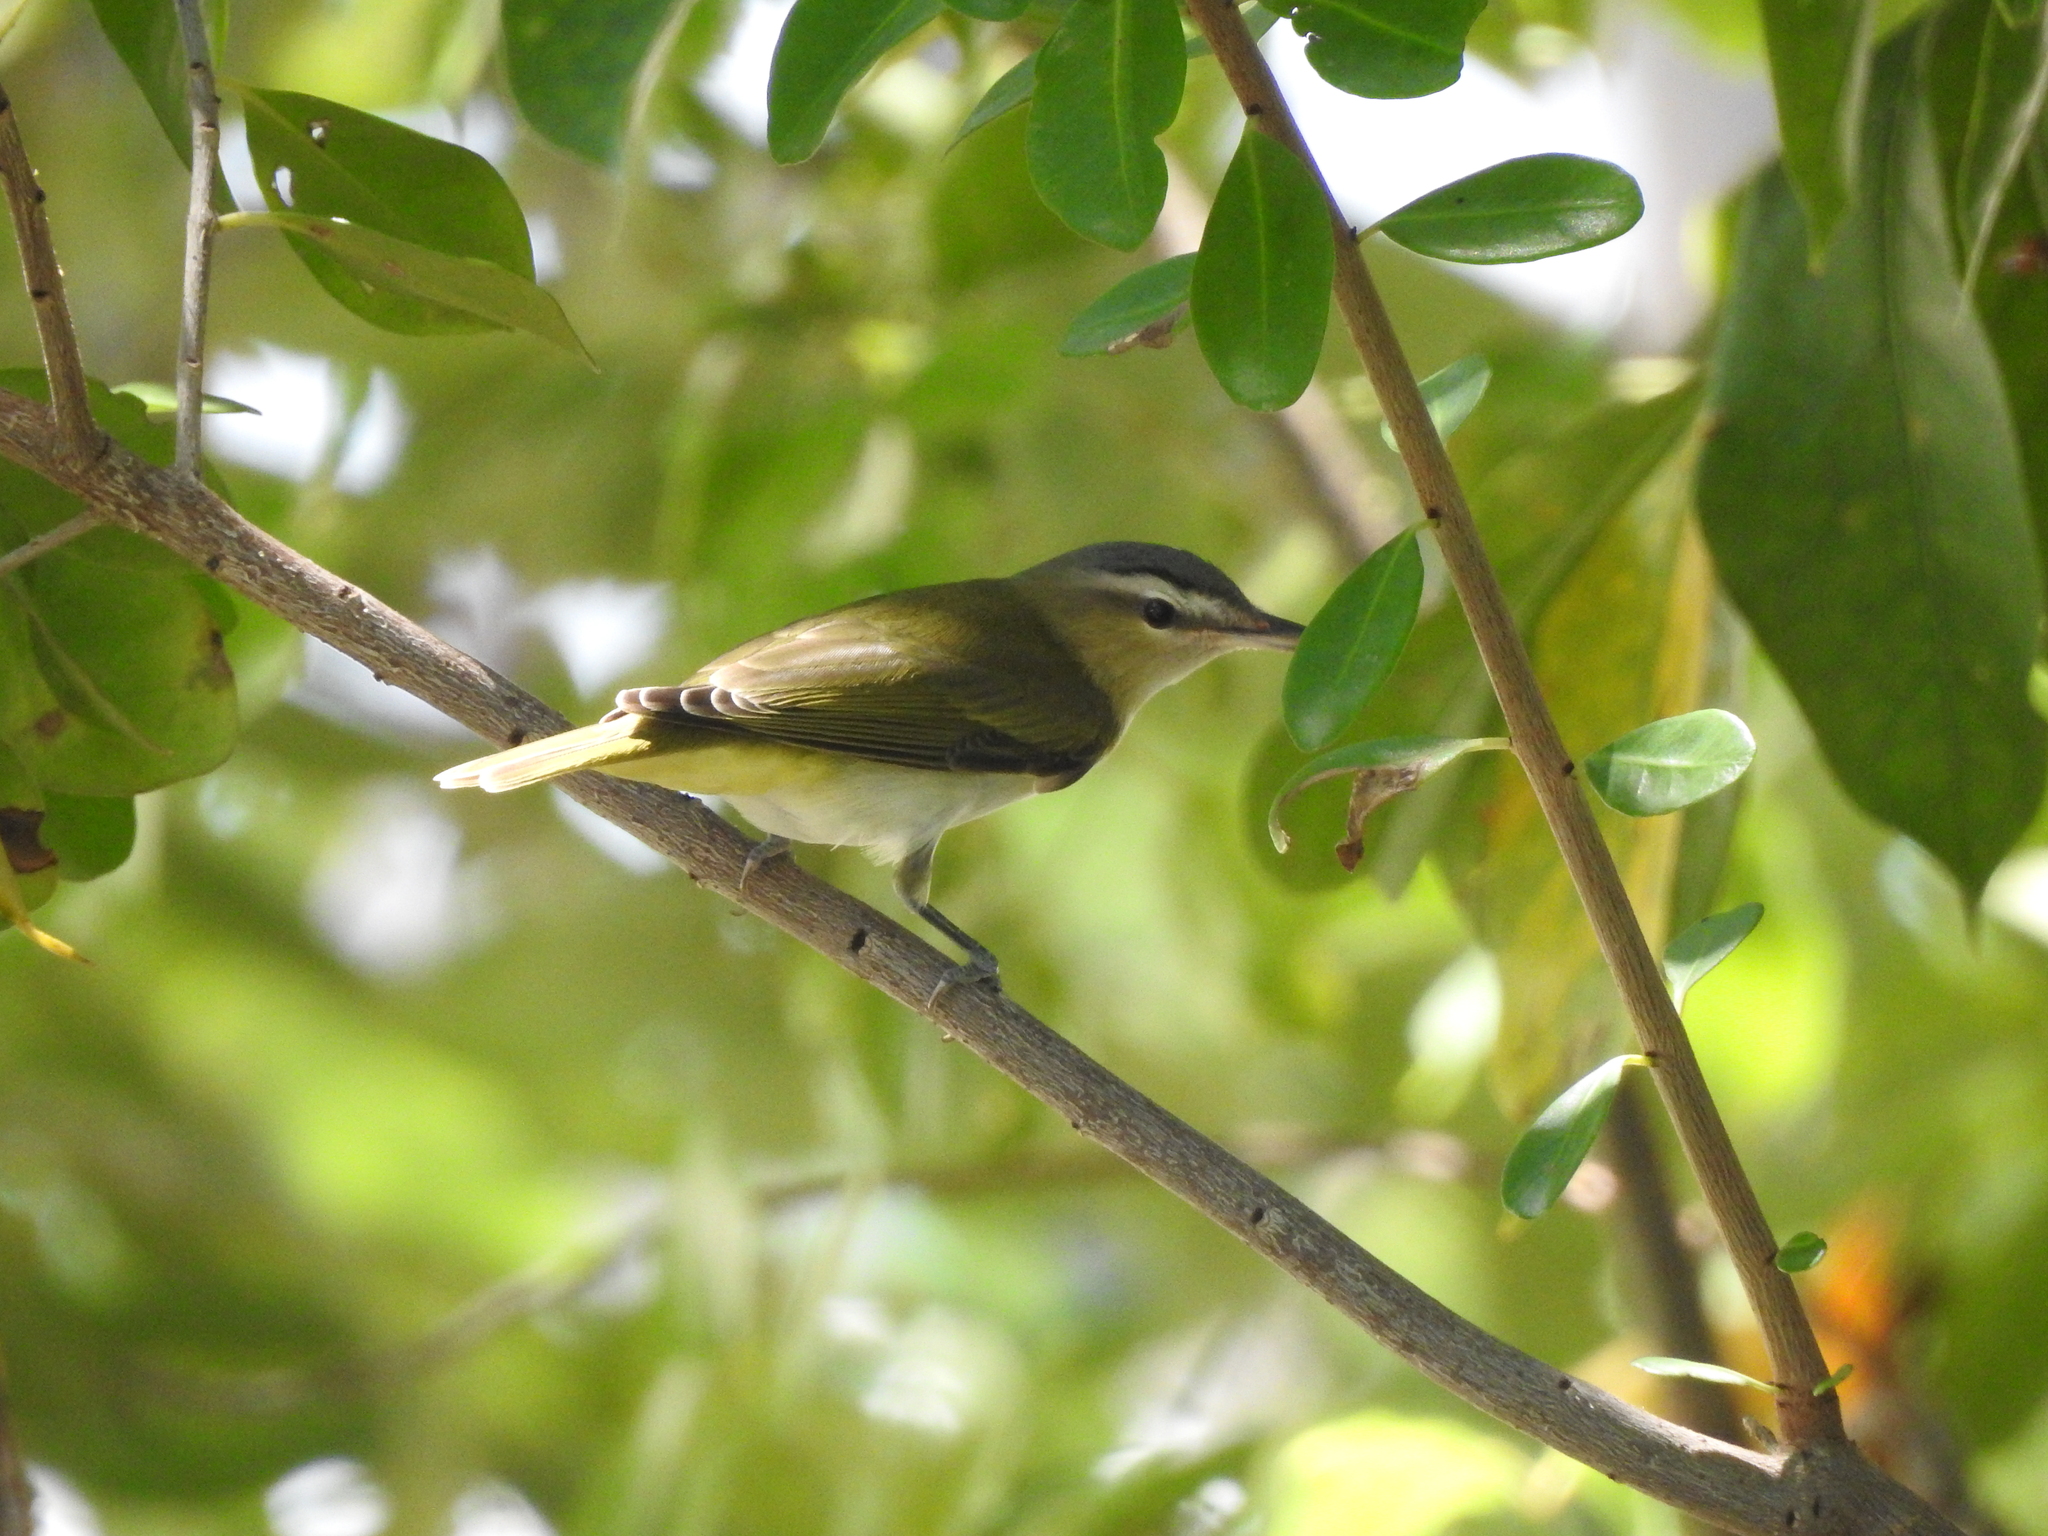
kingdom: Animalia
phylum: Chordata
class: Aves
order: Passeriformes
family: Vireonidae
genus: Vireo
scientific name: Vireo olivaceus
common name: Red-eyed vireo
